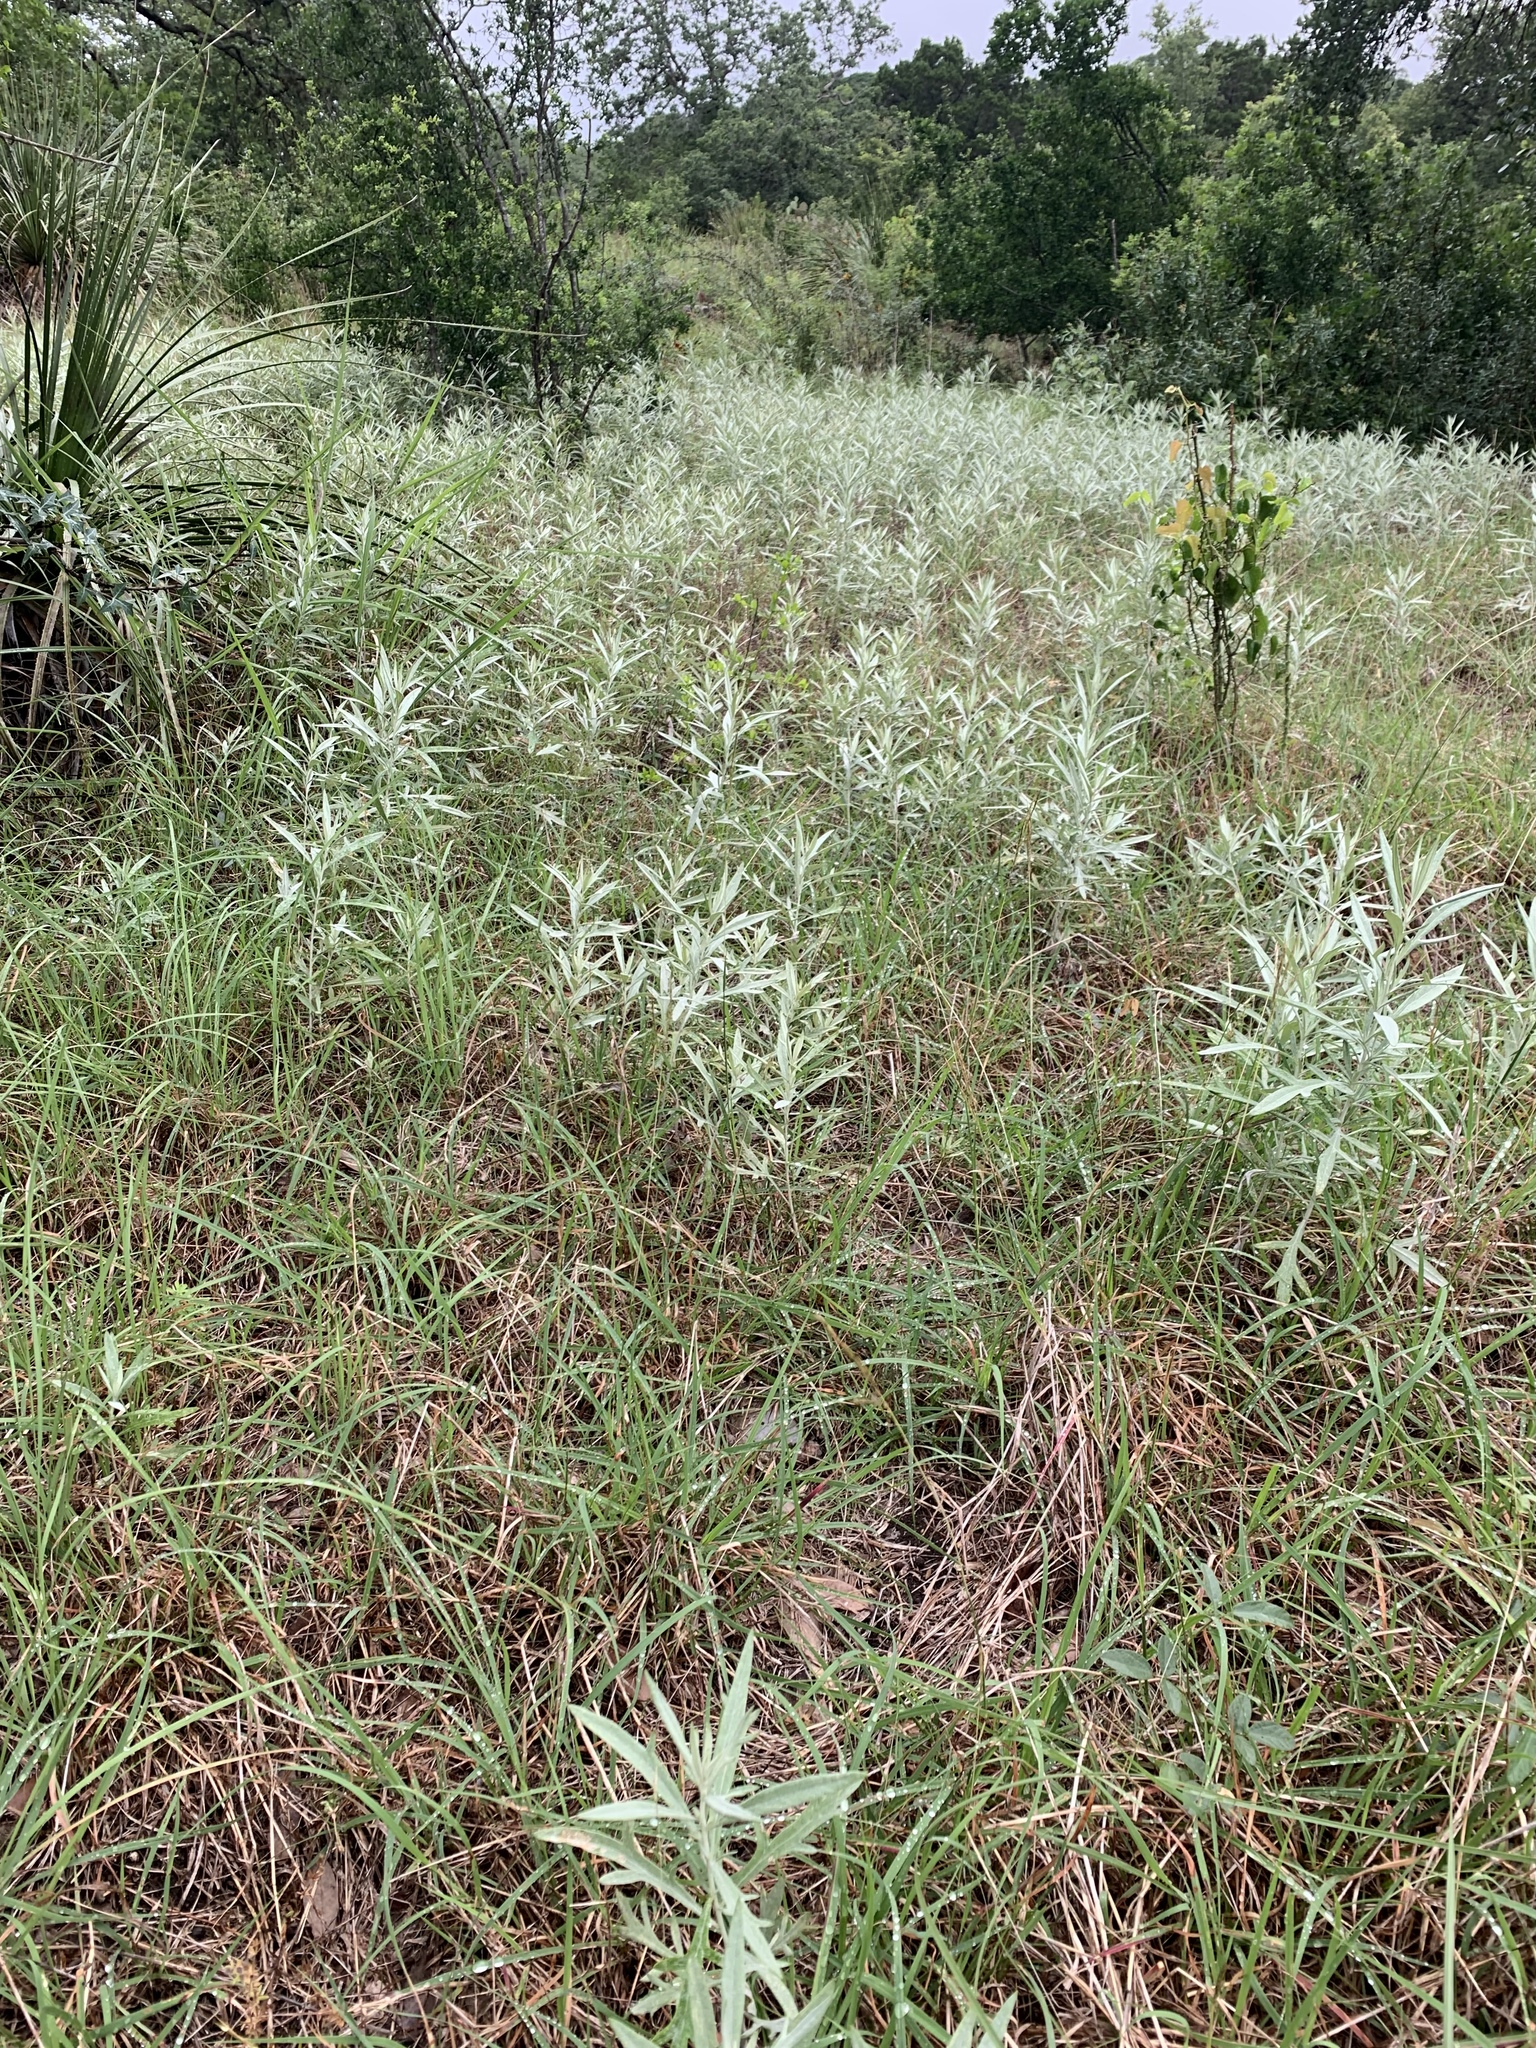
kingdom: Plantae
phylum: Tracheophyta
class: Magnoliopsida
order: Asterales
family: Asteraceae
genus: Artemisia
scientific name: Artemisia ludoviciana
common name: Western mugwort
